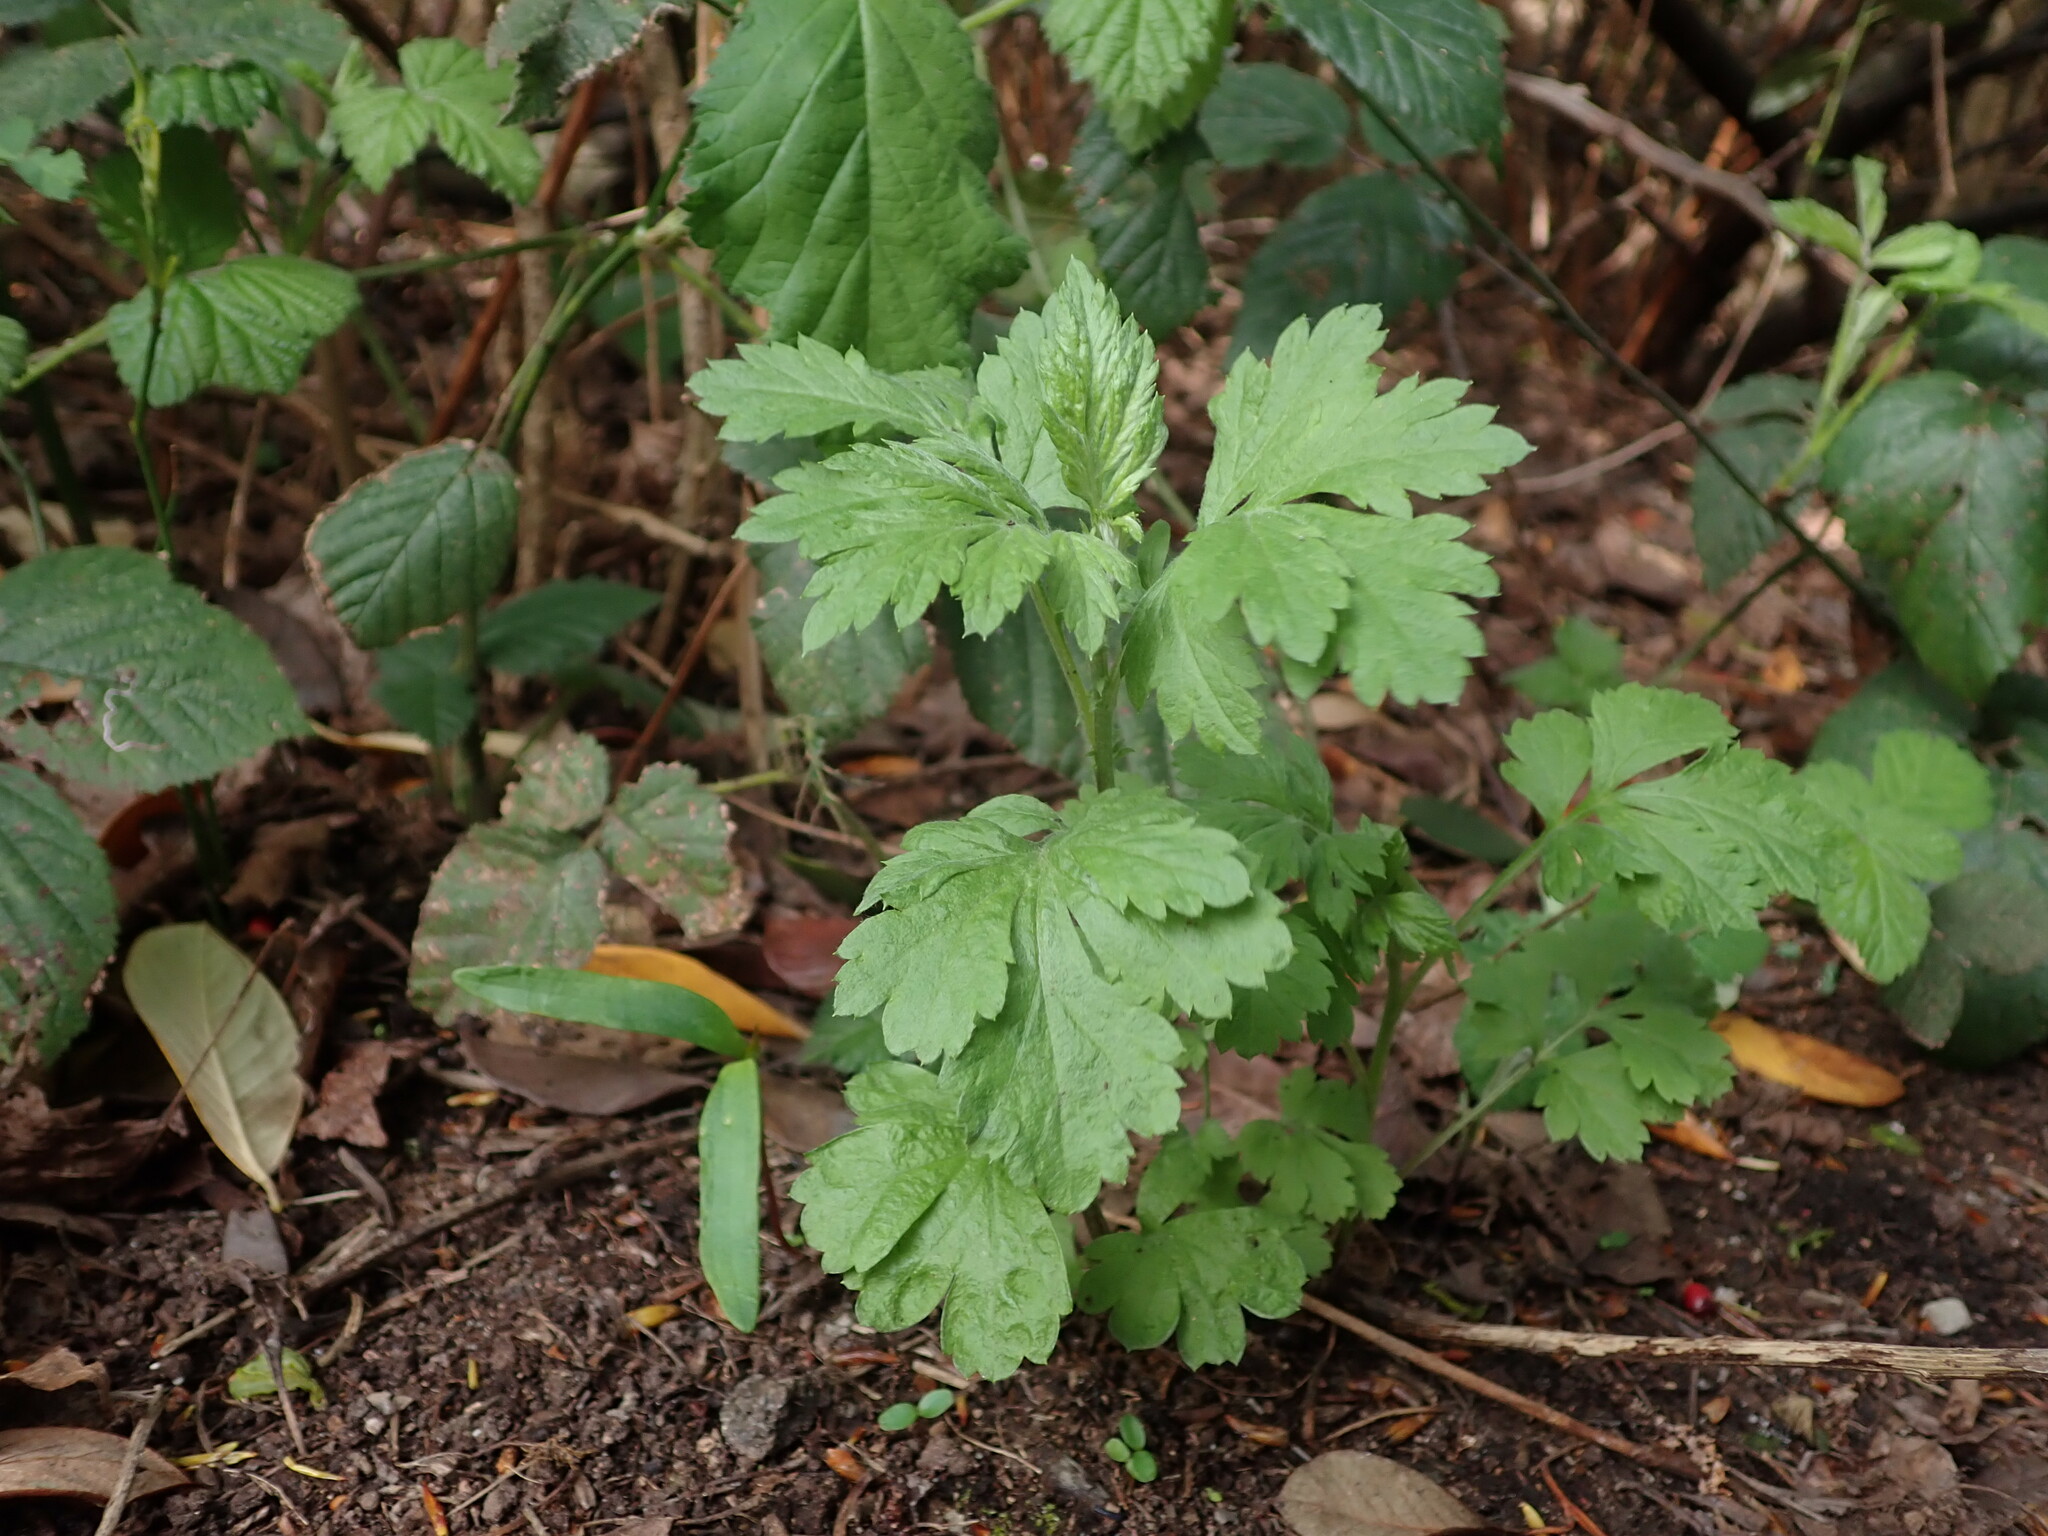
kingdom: Plantae
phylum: Tracheophyta
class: Magnoliopsida
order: Asterales
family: Asteraceae
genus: Artemisia
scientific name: Artemisia vulgaris
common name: Mugwort
